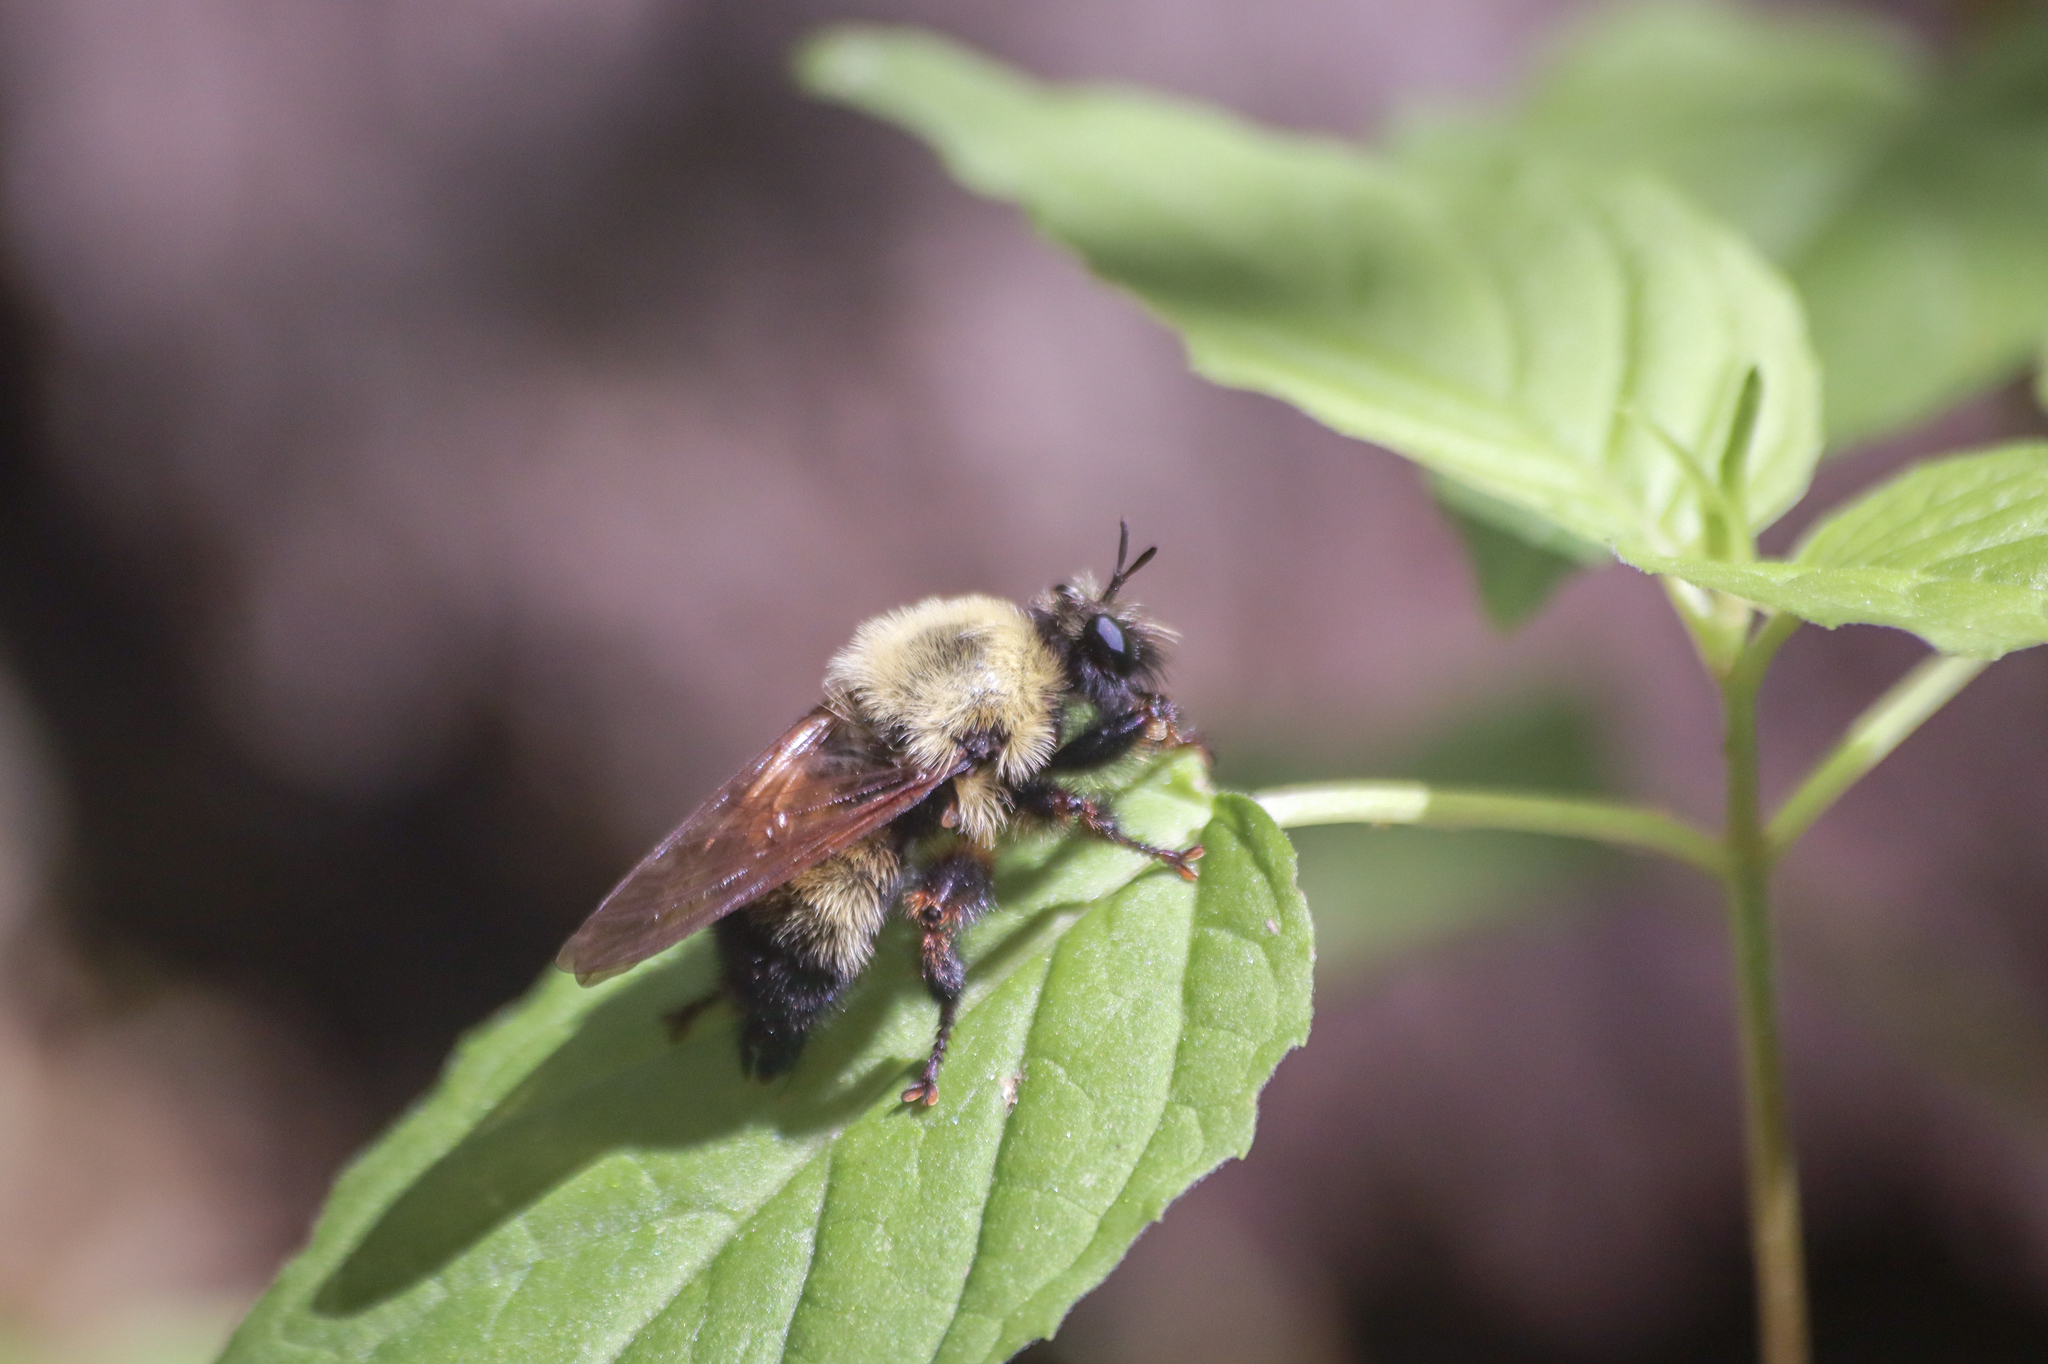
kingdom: Animalia
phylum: Arthropoda
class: Insecta
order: Diptera
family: Asilidae
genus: Laphria
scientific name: Laphria thoracica
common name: Bumble bee mimic robber fly
